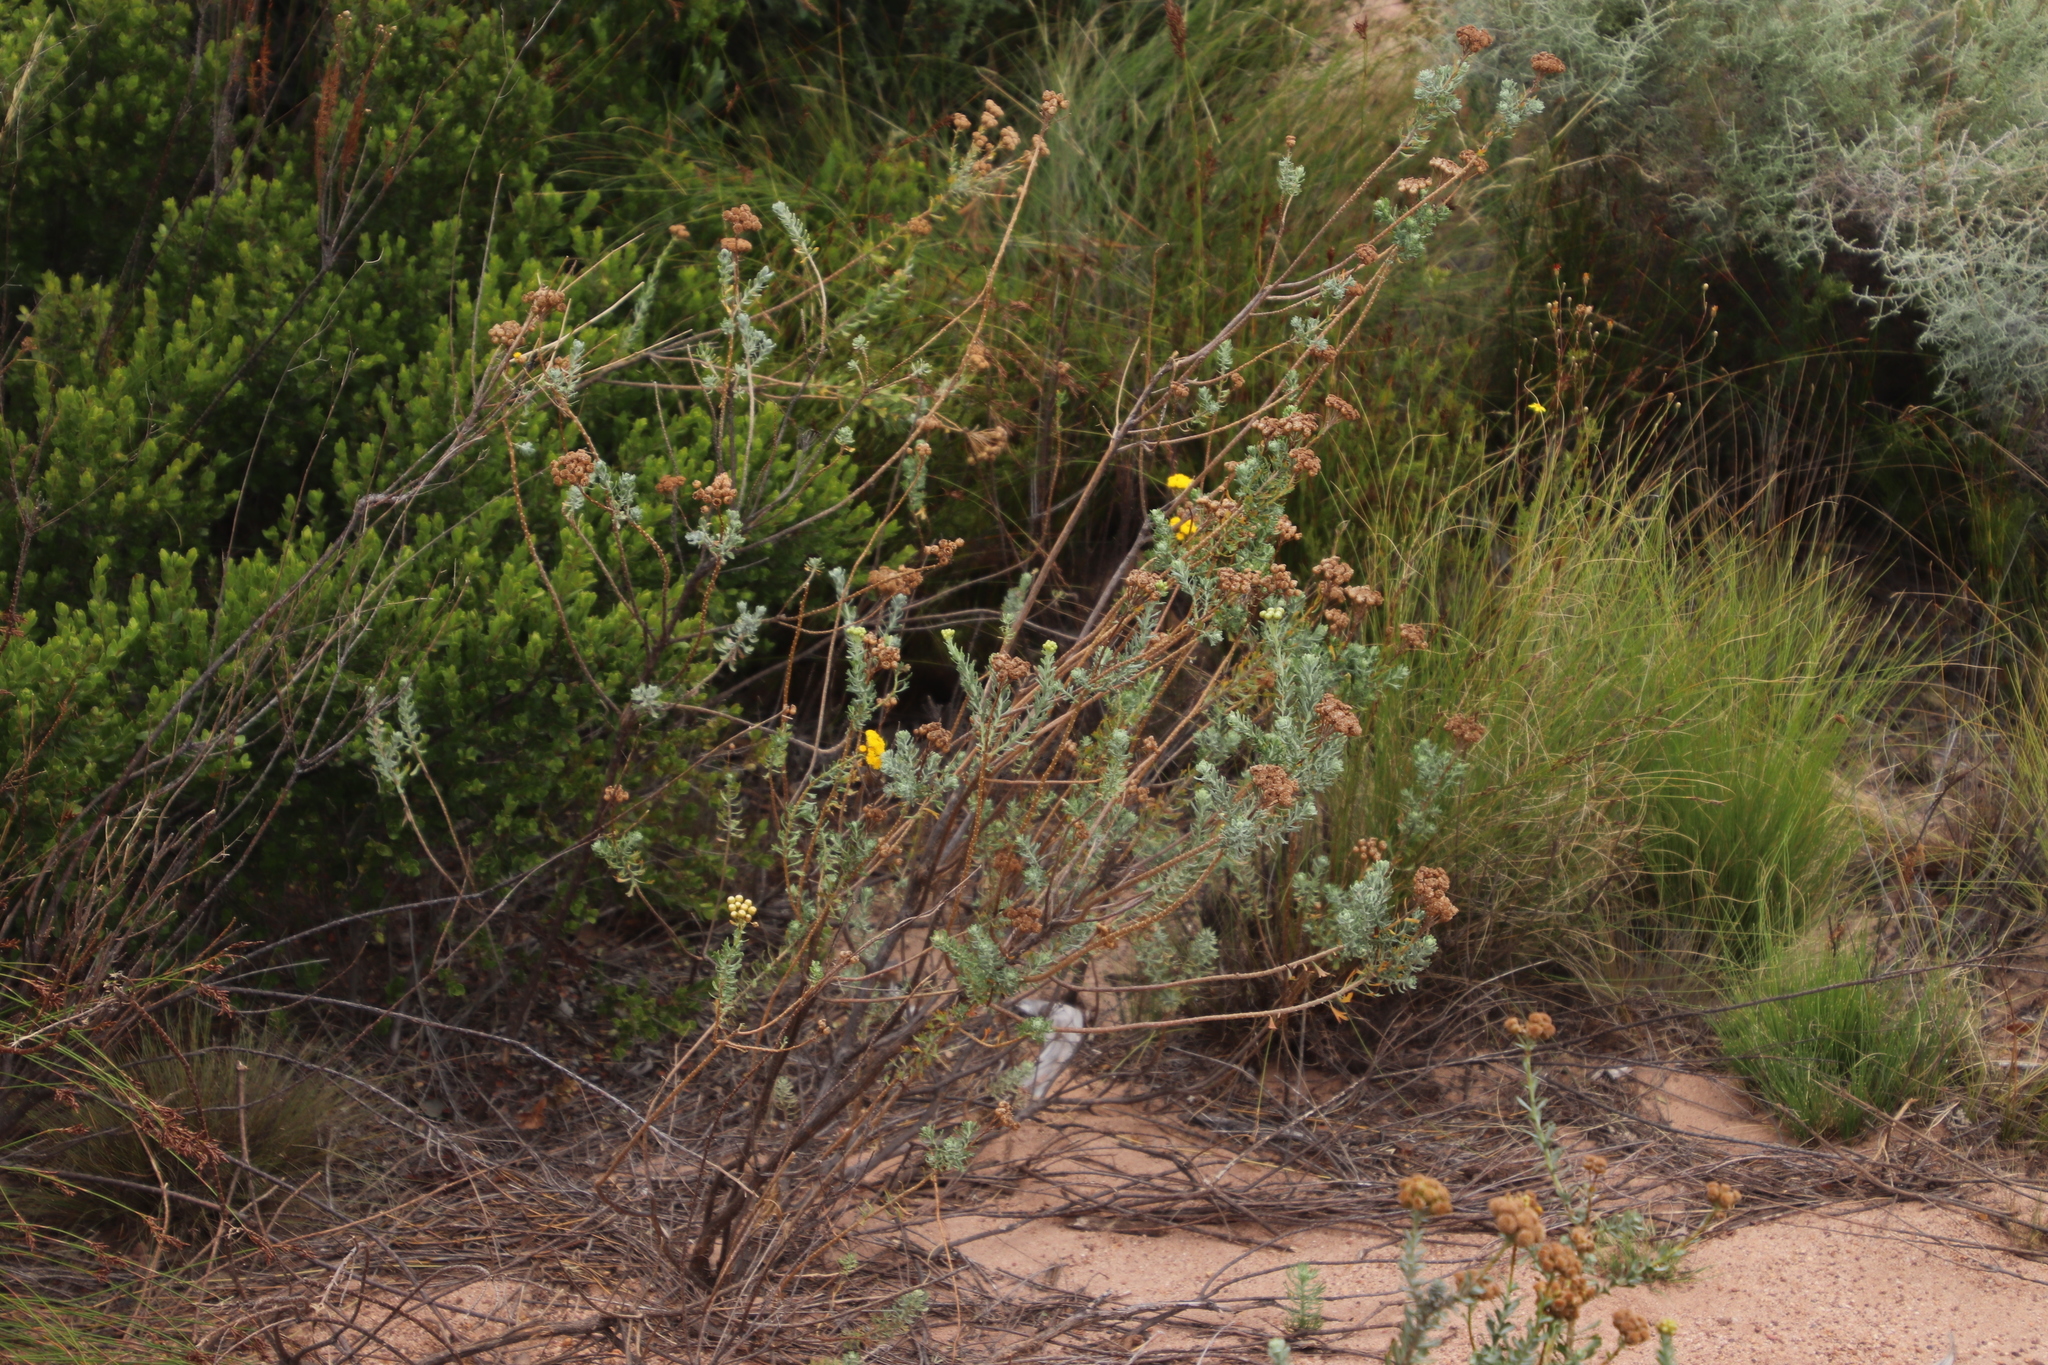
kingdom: Plantae
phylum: Tracheophyta
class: Magnoliopsida
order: Asterales
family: Asteraceae
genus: Athanasia
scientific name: Athanasia trifurcata
